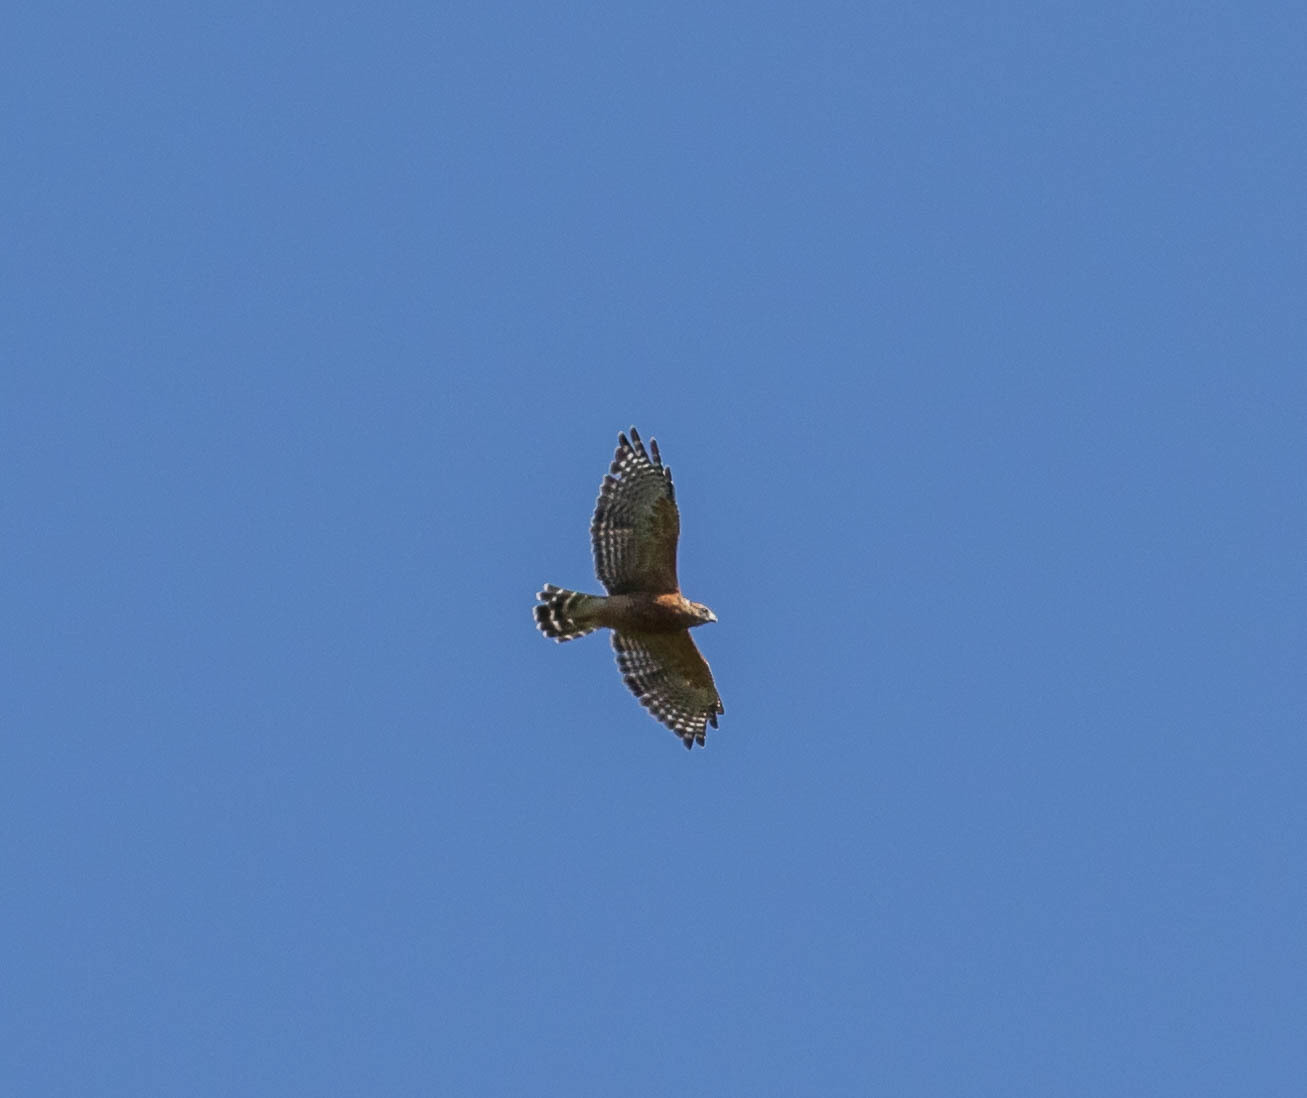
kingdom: Animalia
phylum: Chordata
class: Aves
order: Accipitriformes
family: Accipitridae
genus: Buteo
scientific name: Buteo lineatus
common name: Red-shouldered hawk
